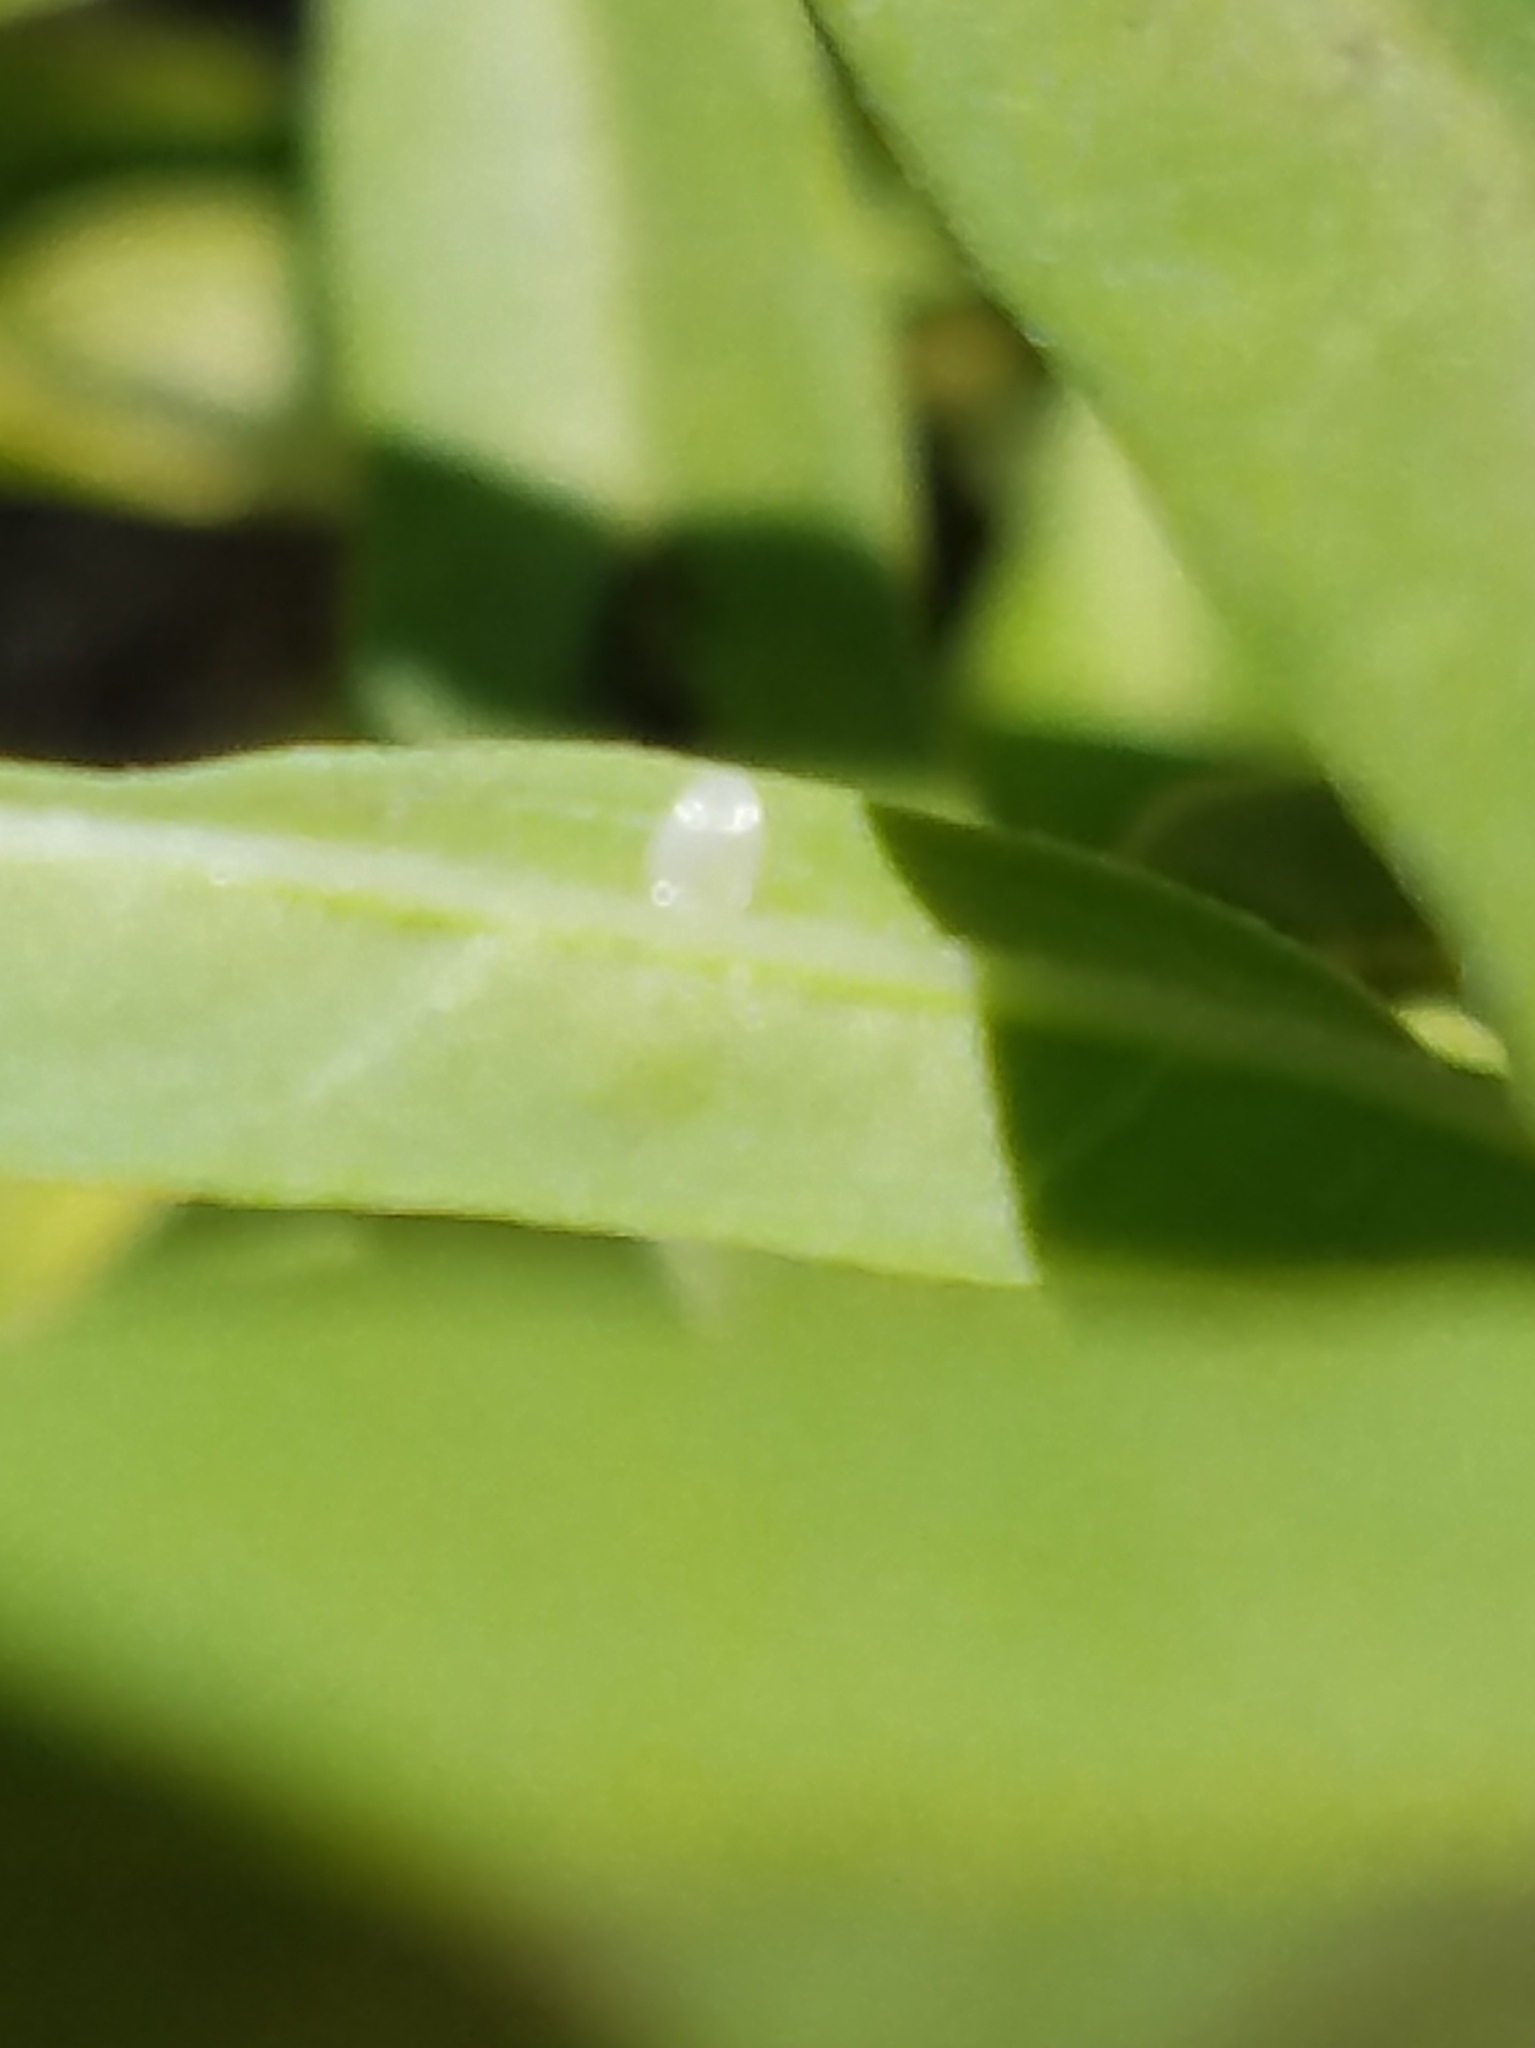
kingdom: Animalia
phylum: Arthropoda
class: Insecta
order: Lepidoptera
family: Nymphalidae
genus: Danaus
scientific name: Danaus plexippus
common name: Monarch
